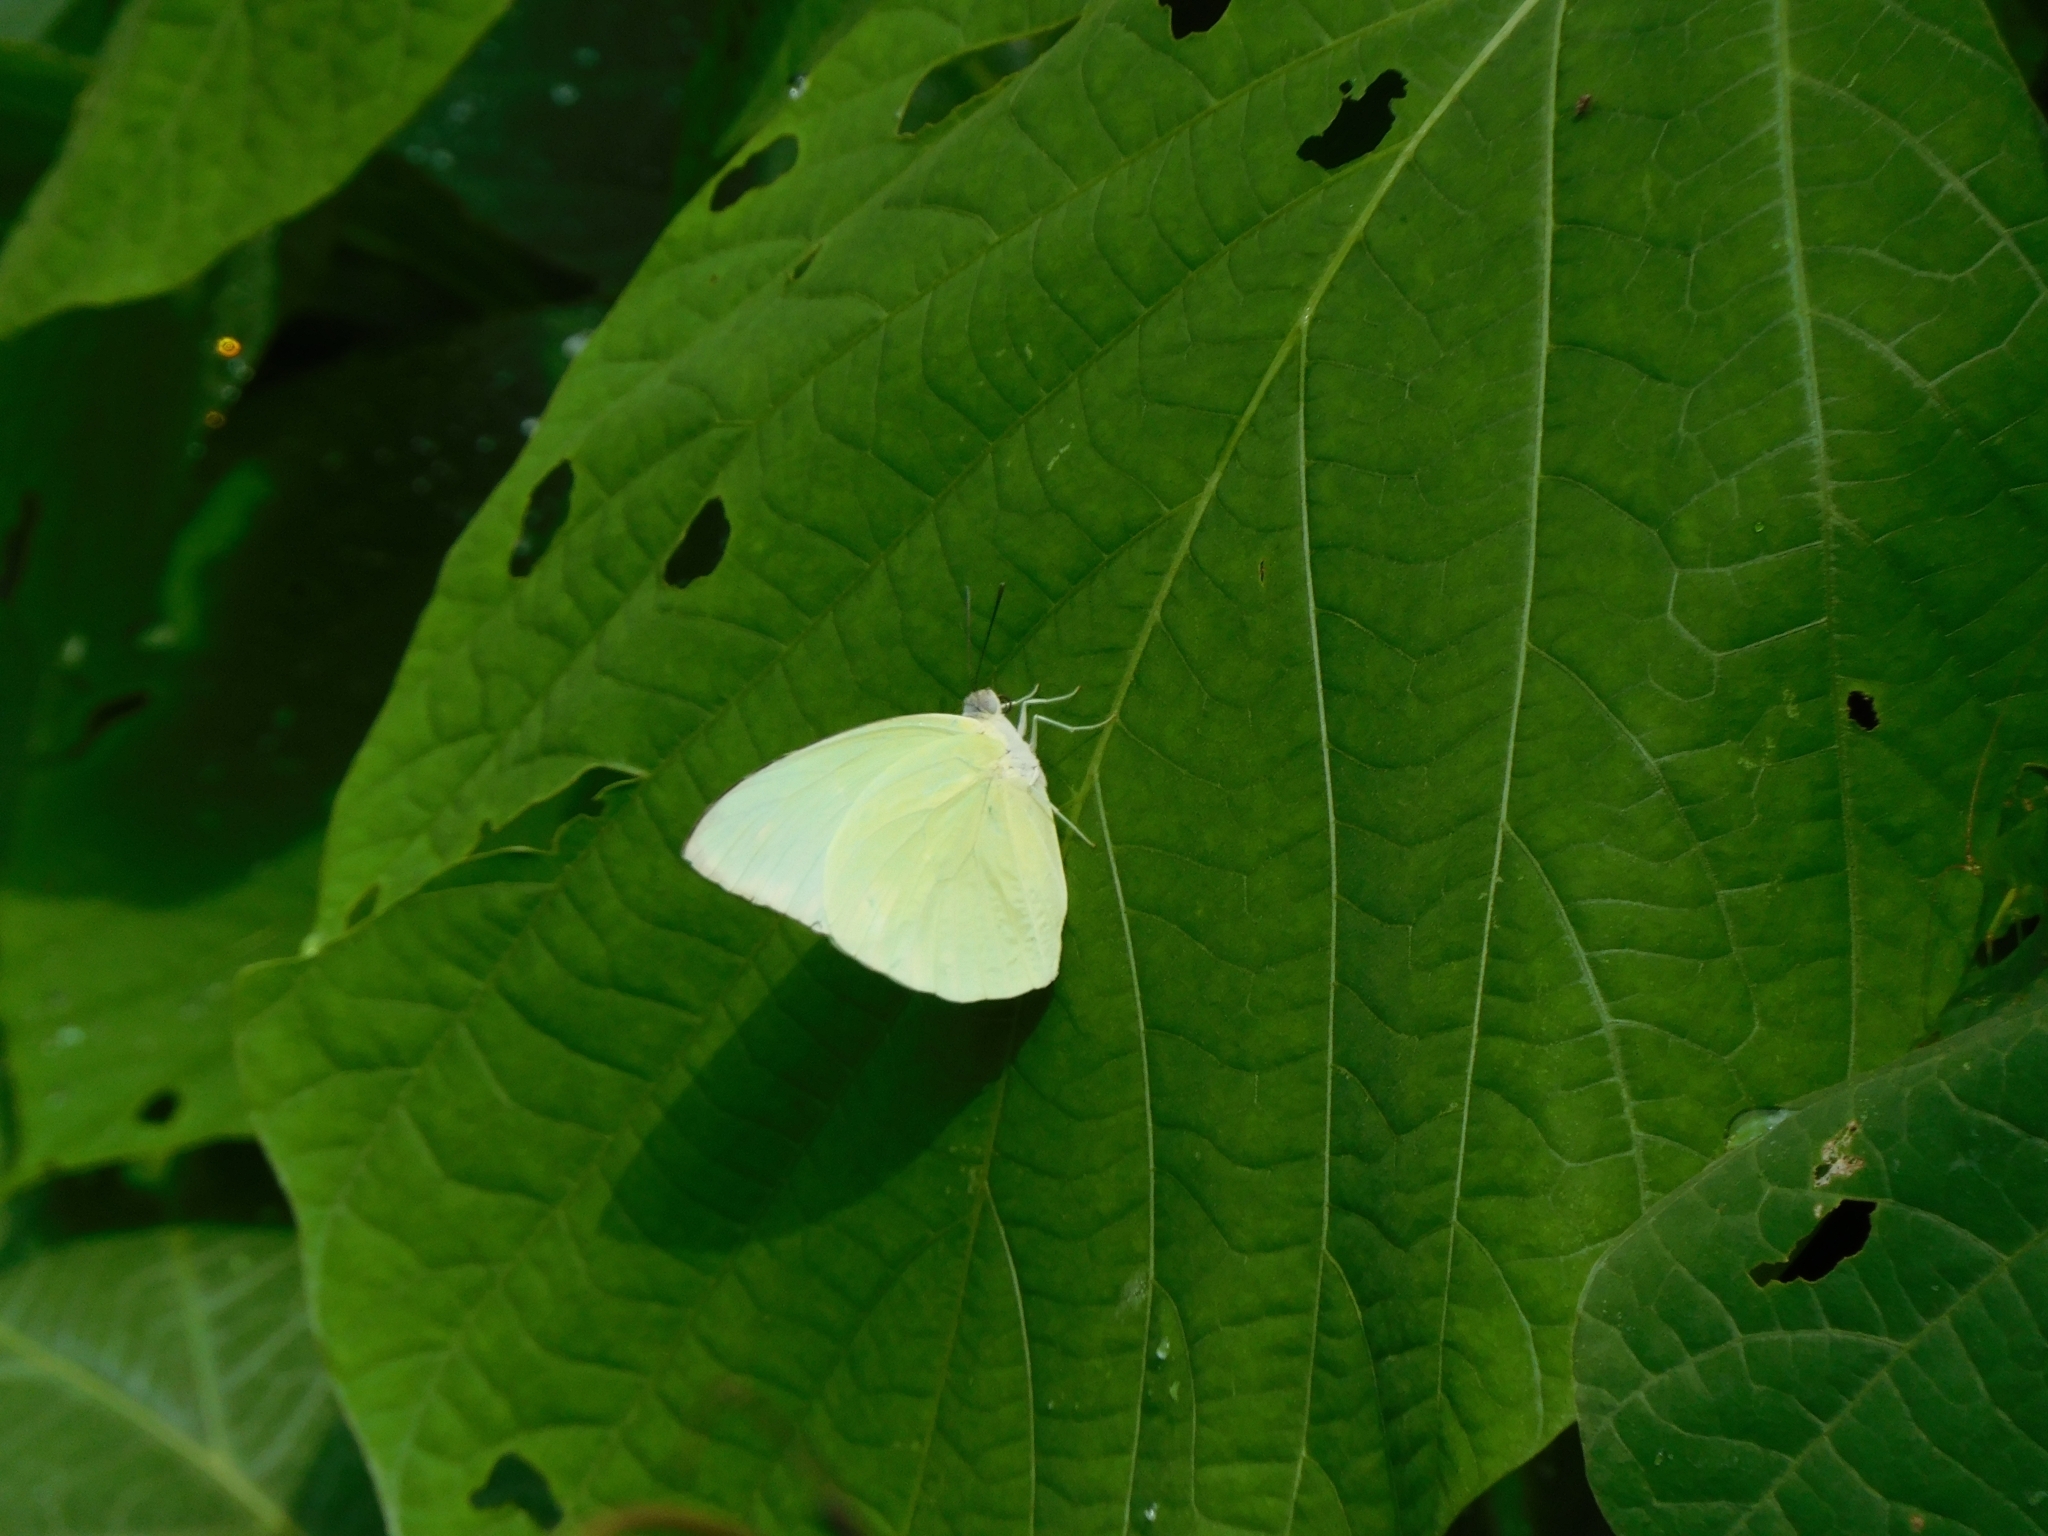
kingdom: Animalia
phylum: Arthropoda
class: Insecta
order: Lepidoptera
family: Pieridae
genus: Catopsilia
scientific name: Catopsilia pomona
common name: Common emigrant
